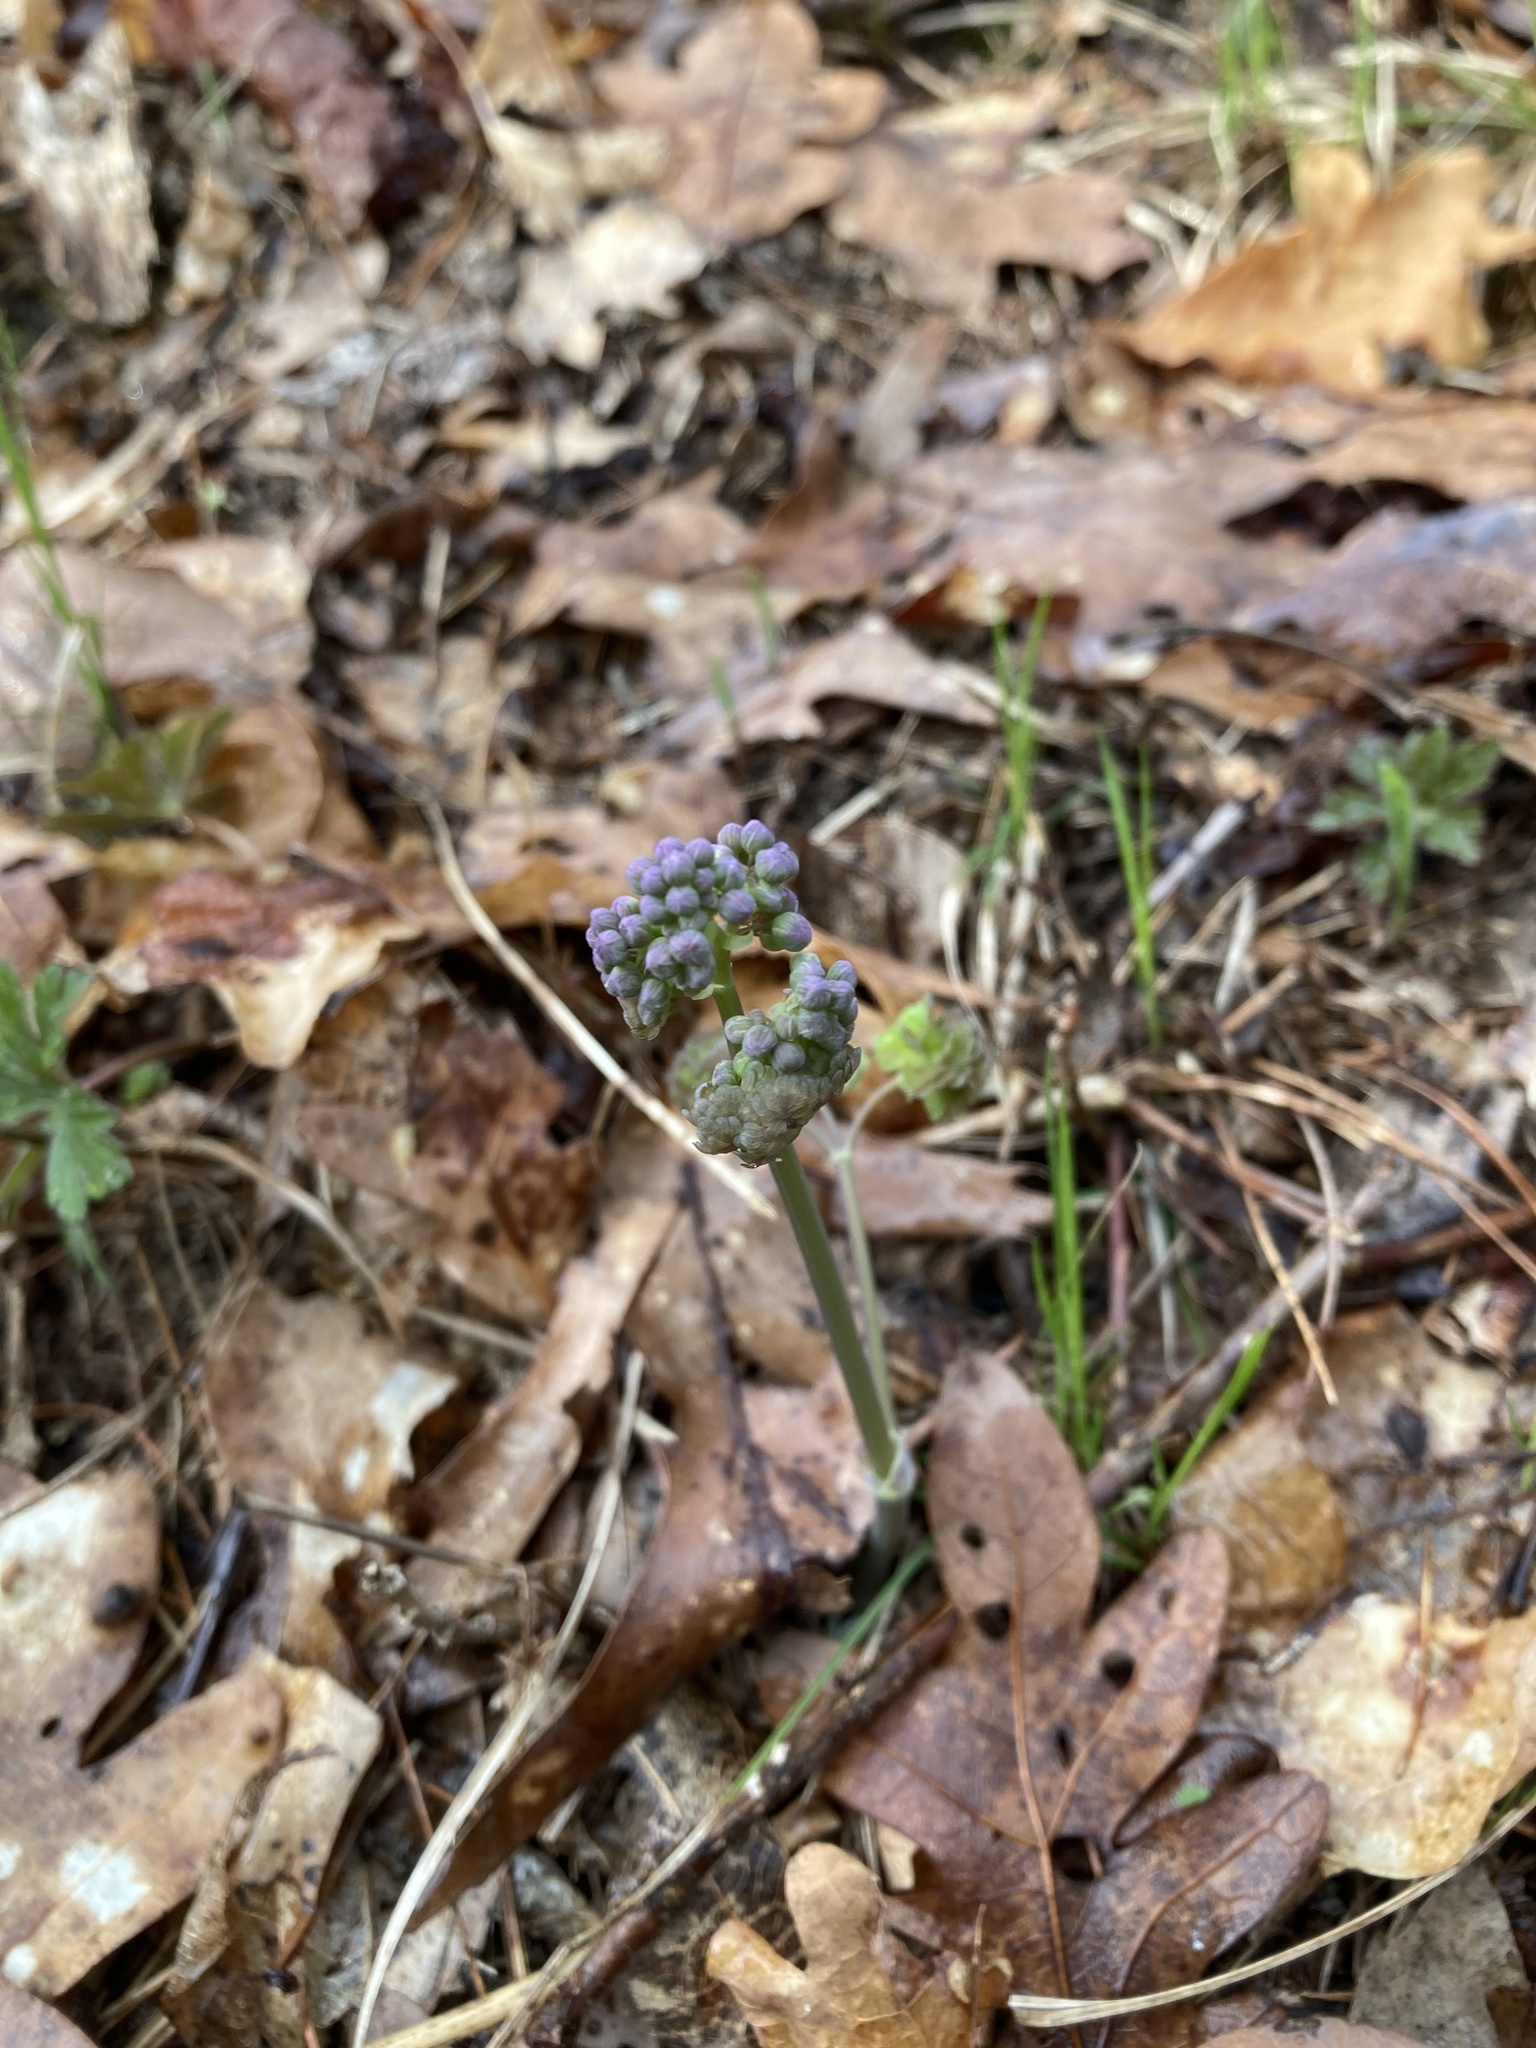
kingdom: Plantae
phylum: Tracheophyta
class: Magnoliopsida
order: Ranunculales
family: Ranunculaceae
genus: Thalictrum
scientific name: Thalictrum dioicum
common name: Early meadow-rue
